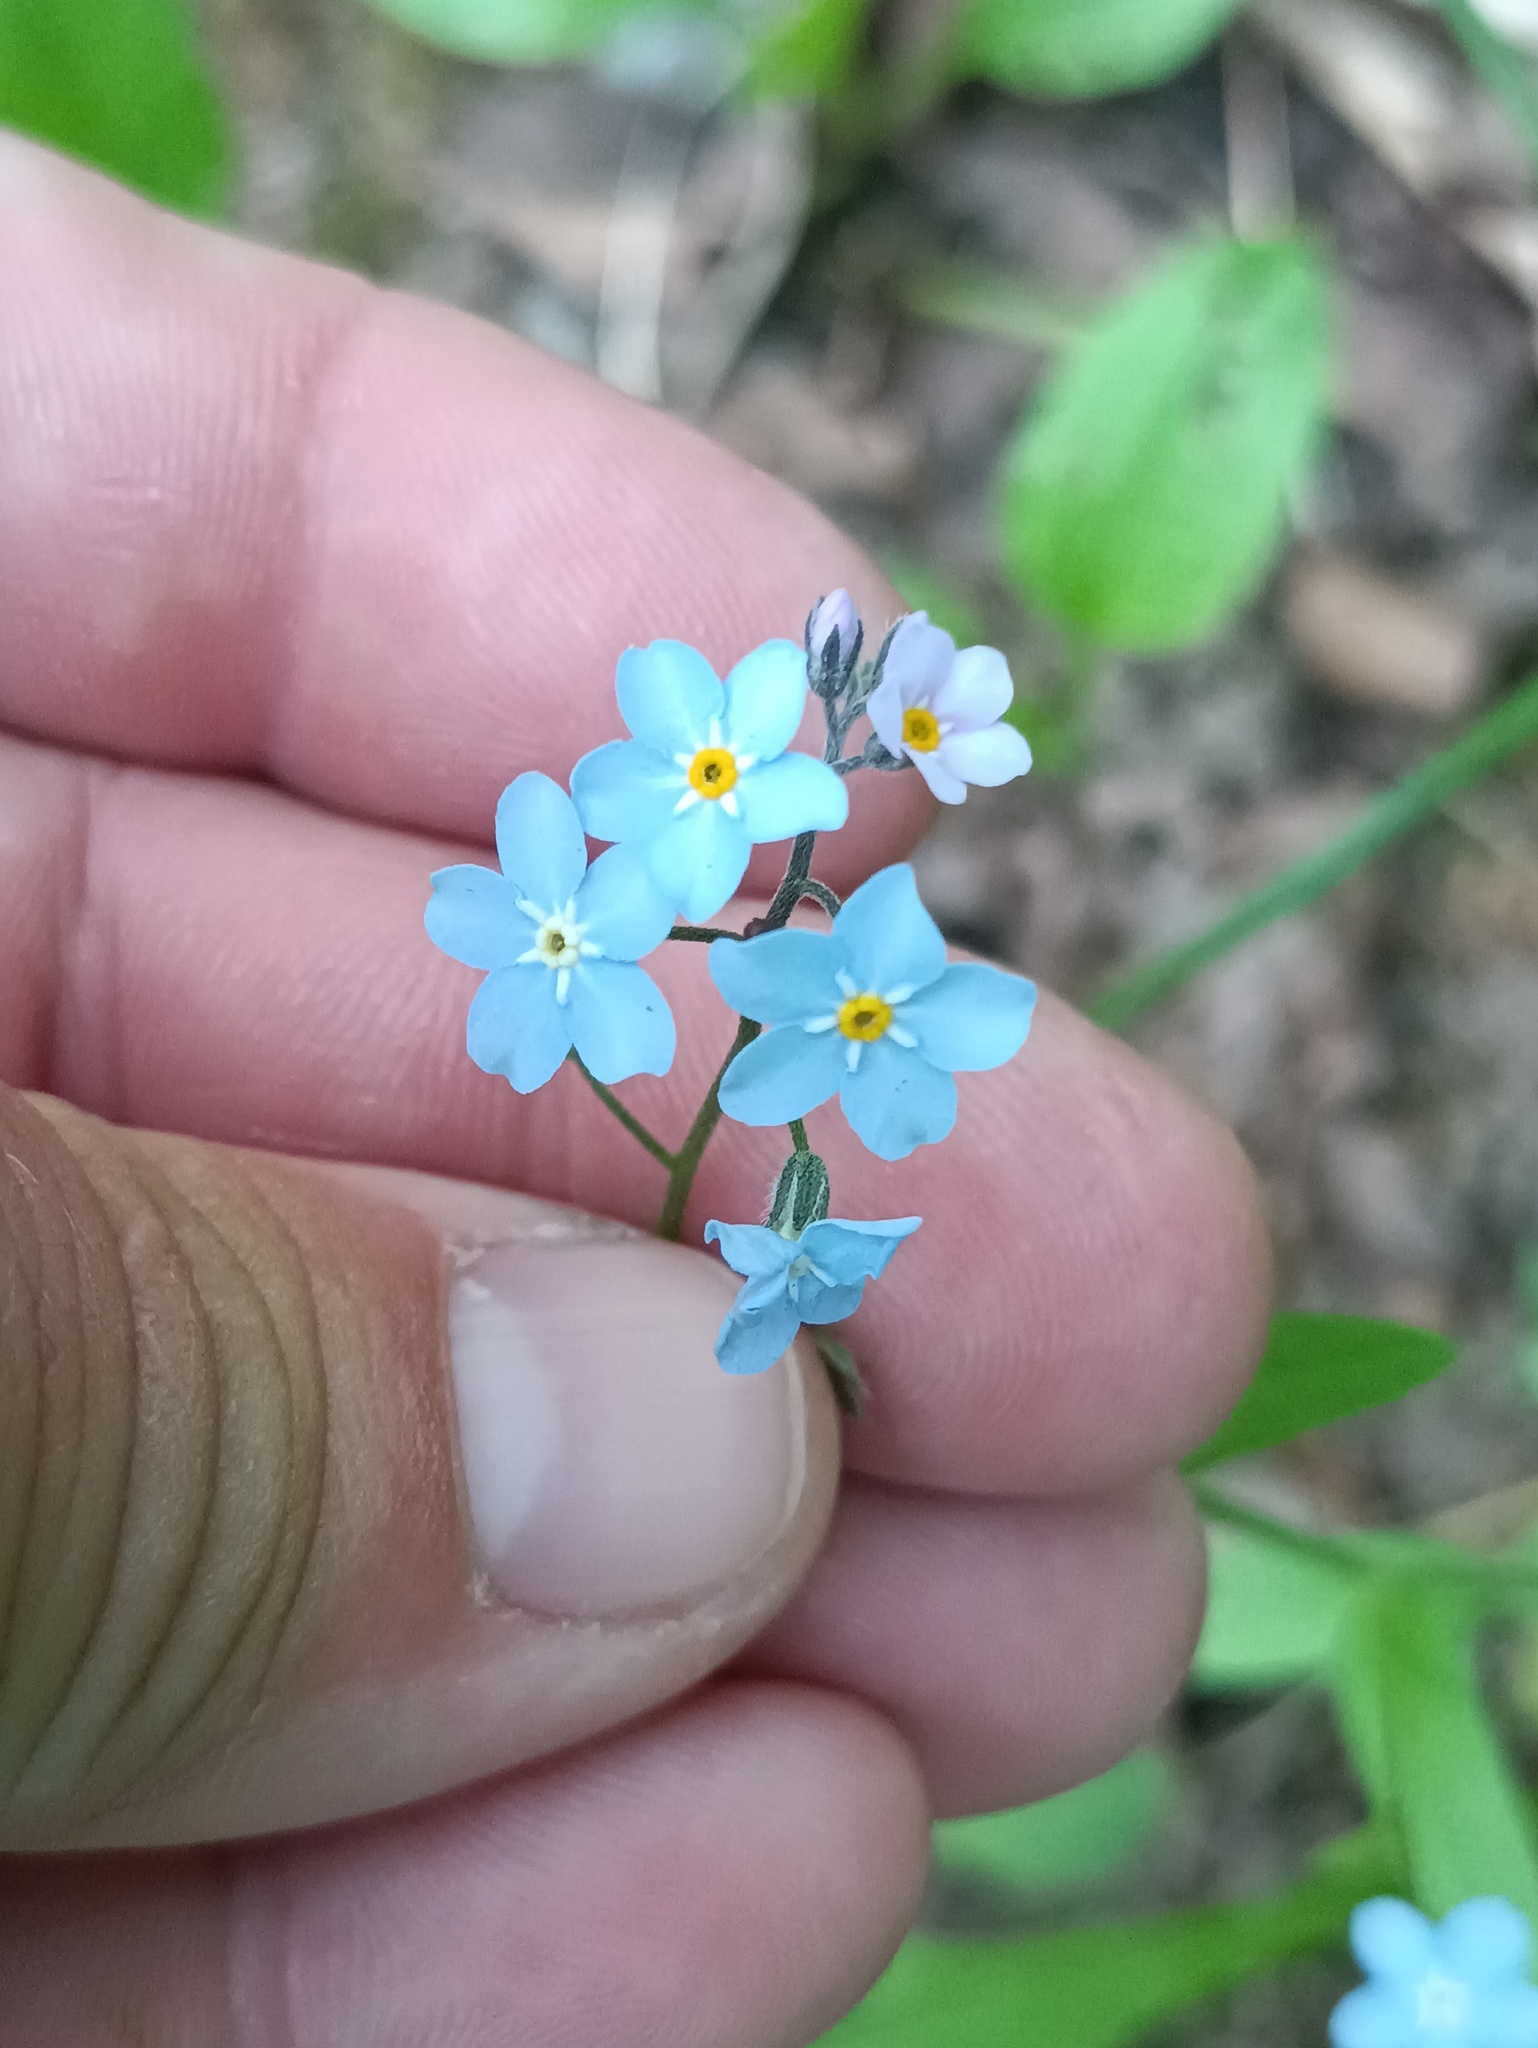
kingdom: Plantae
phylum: Tracheophyta
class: Magnoliopsida
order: Boraginales
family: Boraginaceae
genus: Myosotis
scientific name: Myosotis sylvatica
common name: Wood forget-me-not
